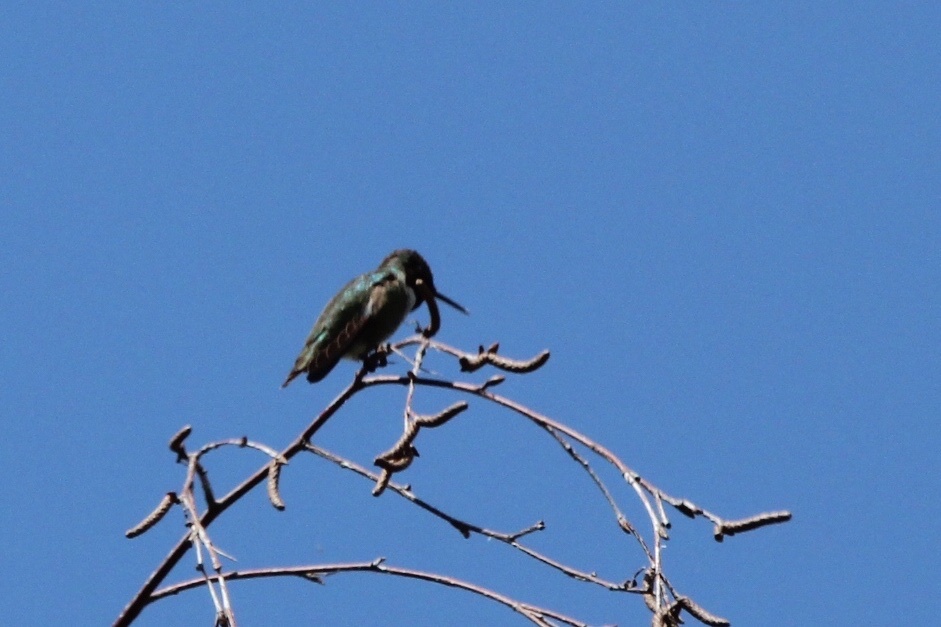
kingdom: Animalia
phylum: Chordata
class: Aves
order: Apodiformes
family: Trochilidae
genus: Calypte
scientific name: Calypte anna
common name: Anna's hummingbird
